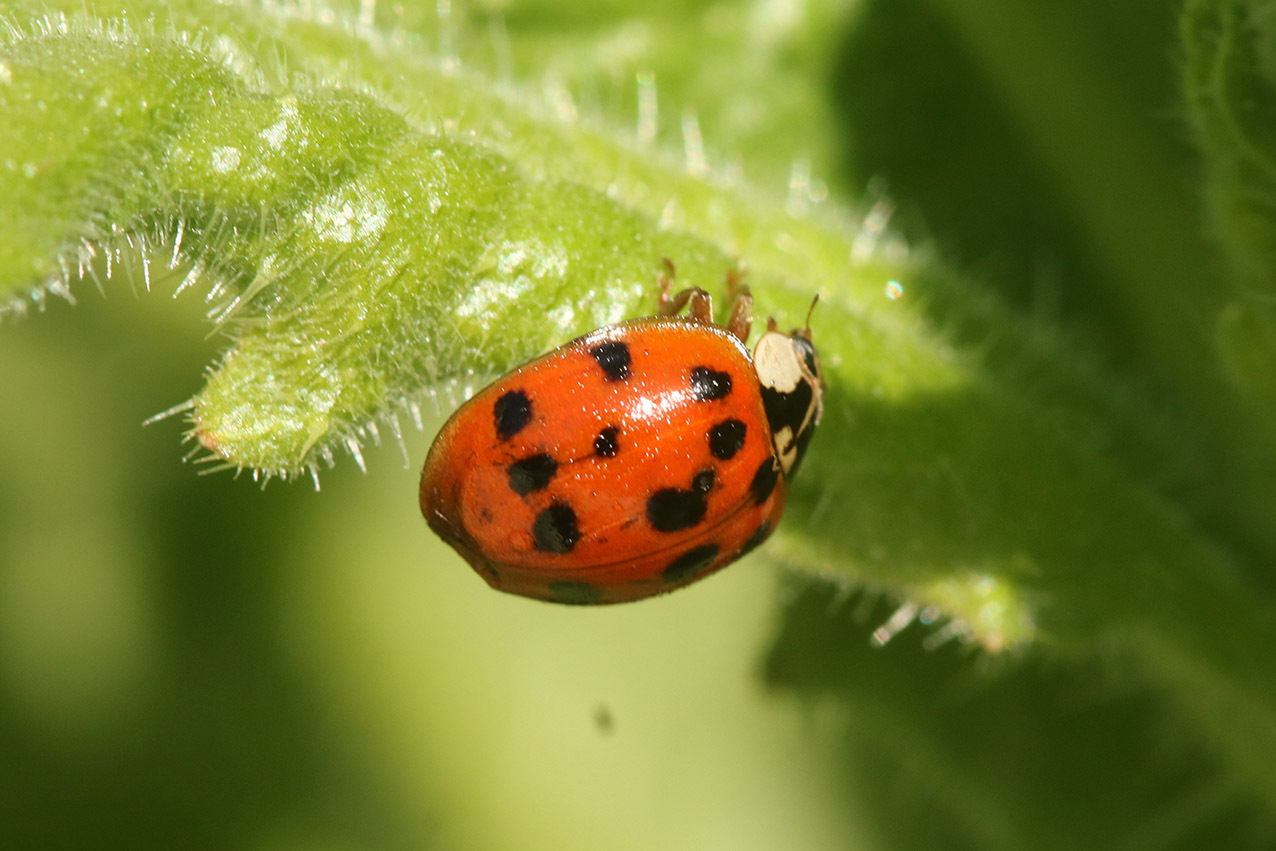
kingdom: Animalia
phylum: Arthropoda
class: Insecta
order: Coleoptera
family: Coccinellidae
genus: Harmonia
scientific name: Harmonia axyridis
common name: Harlequin ladybird
